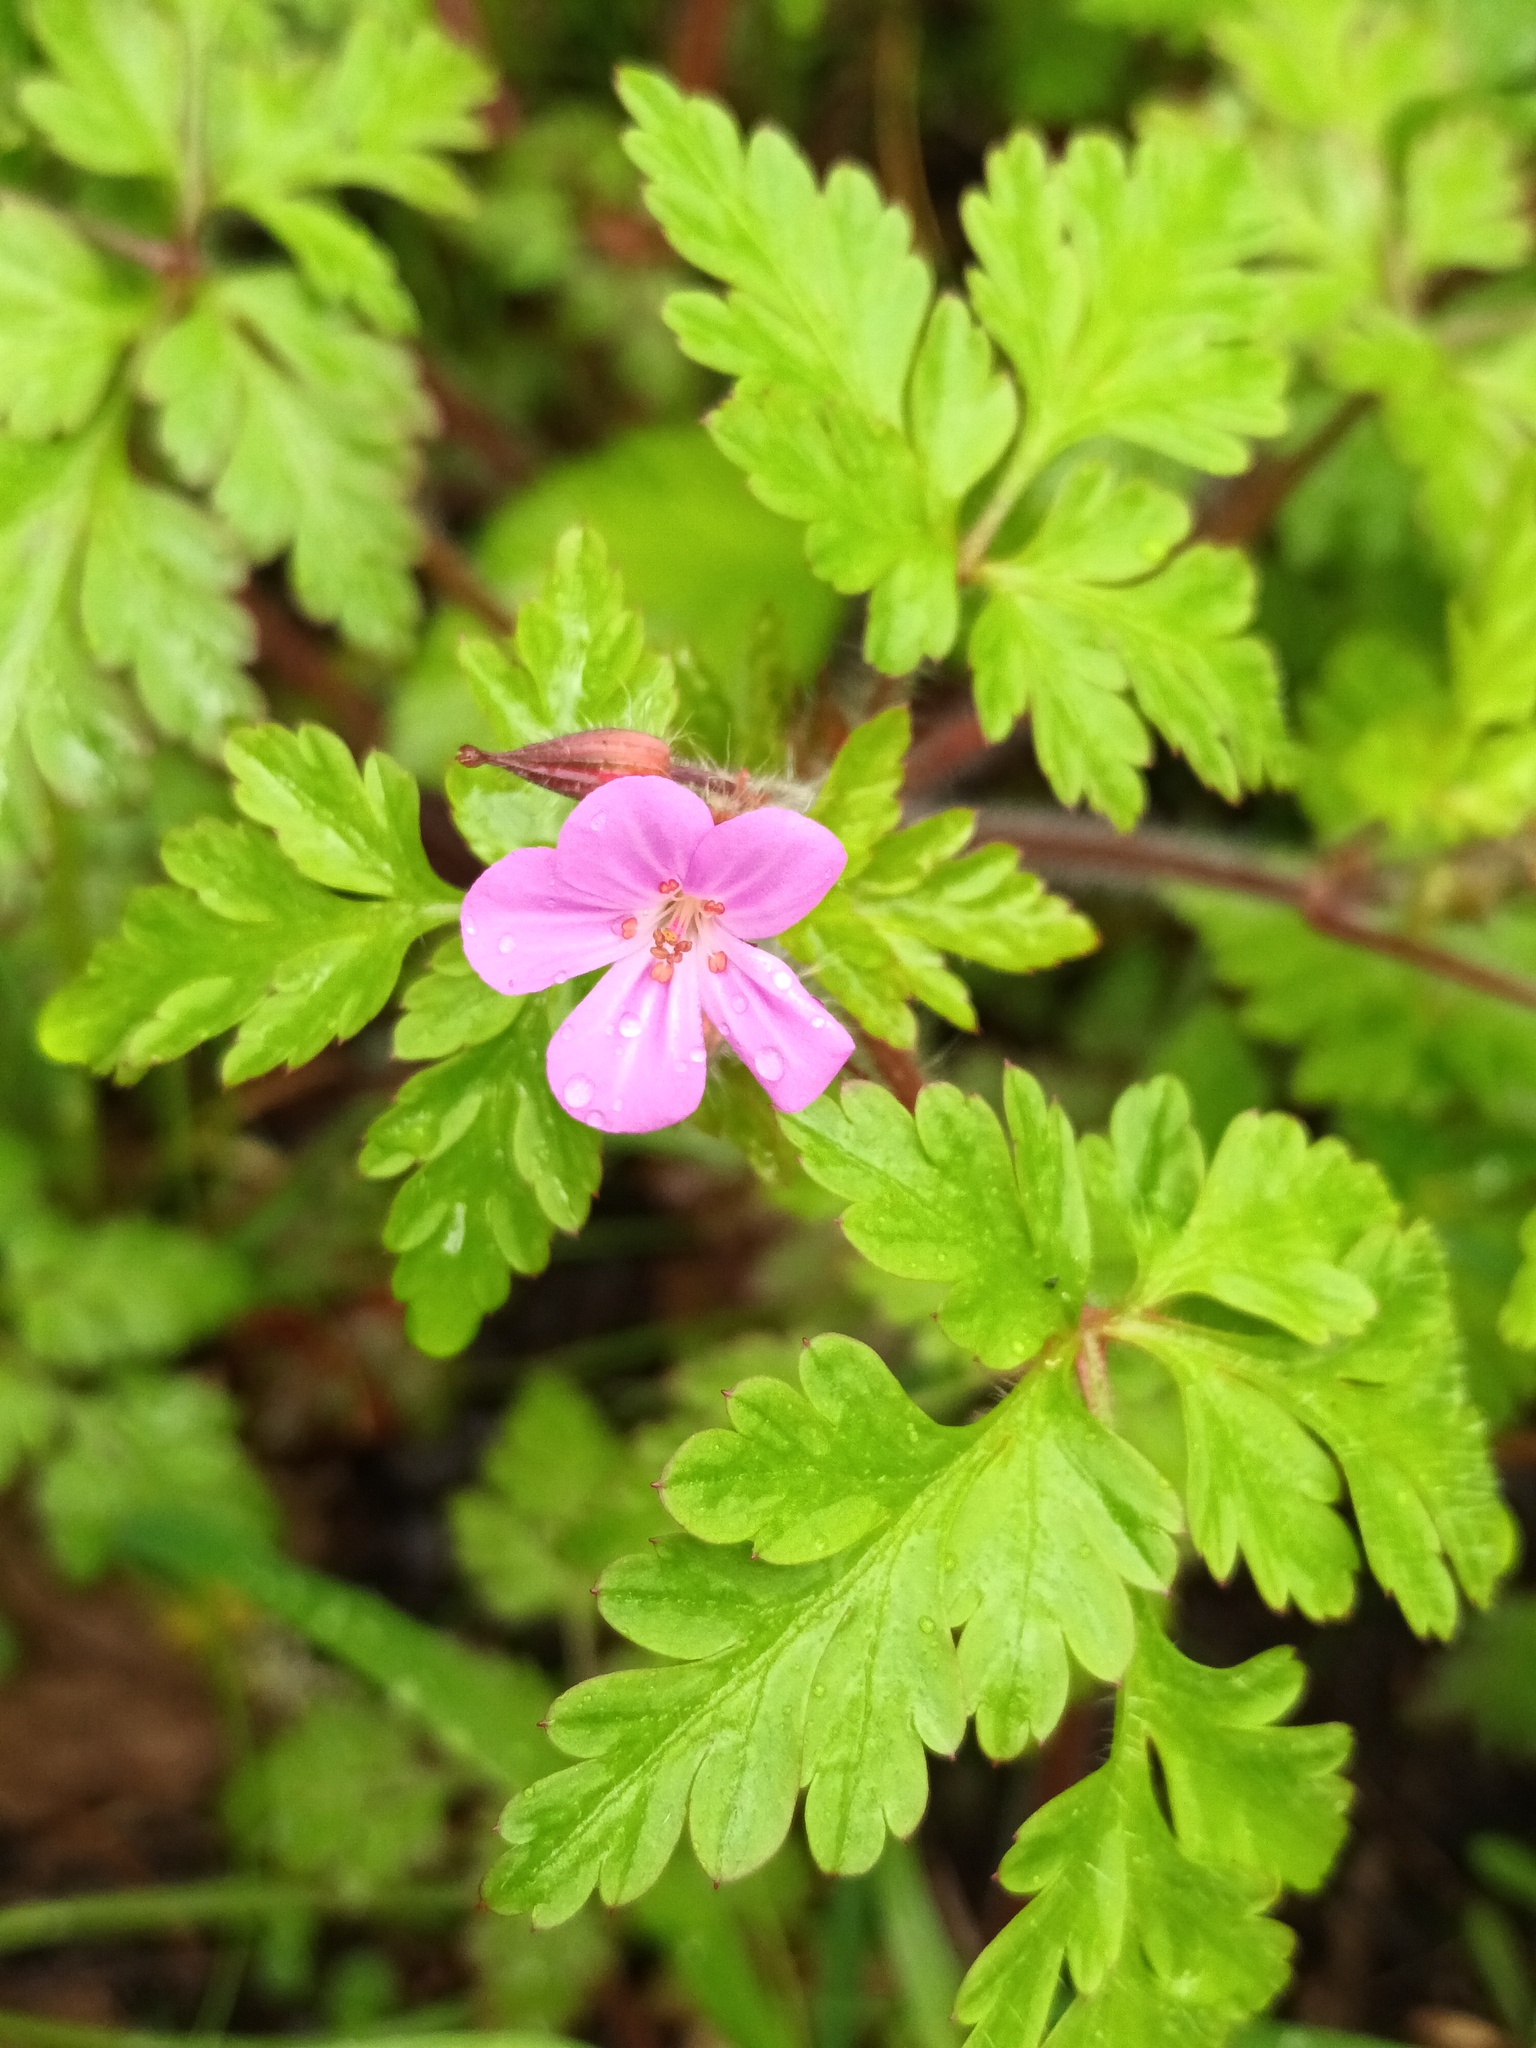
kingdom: Plantae
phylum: Tracheophyta
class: Magnoliopsida
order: Geraniales
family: Geraniaceae
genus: Geranium
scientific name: Geranium robertianum
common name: Herb-robert
